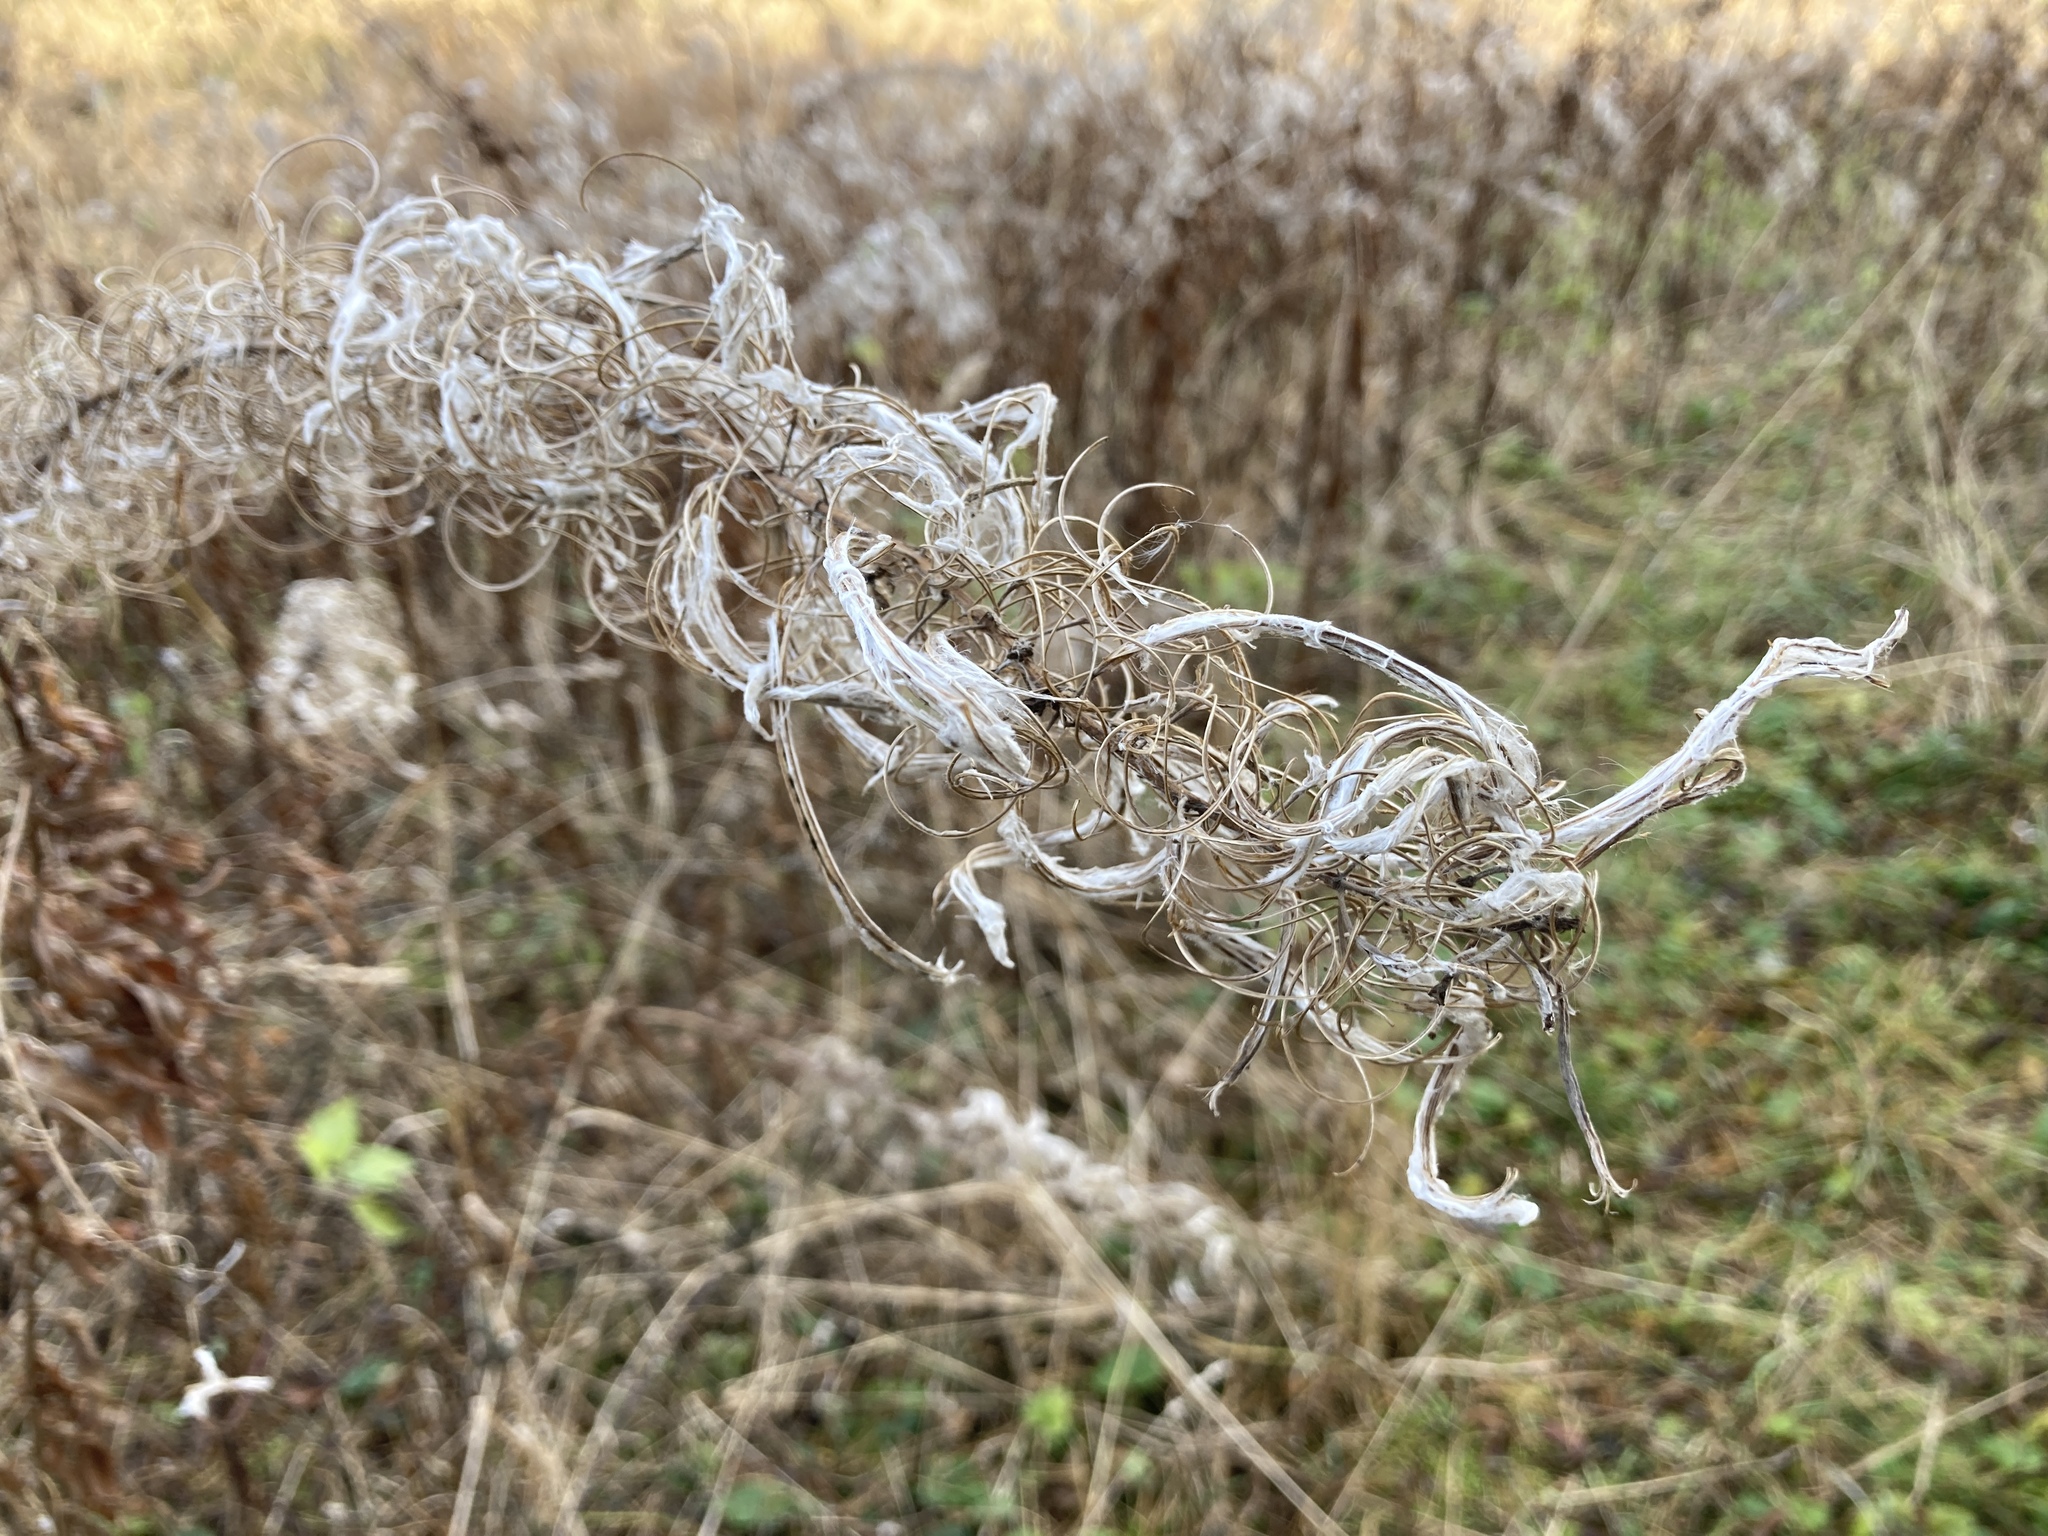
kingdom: Plantae
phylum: Tracheophyta
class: Magnoliopsida
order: Myrtales
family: Onagraceae
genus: Chamaenerion
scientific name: Chamaenerion angustifolium
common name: Fireweed
